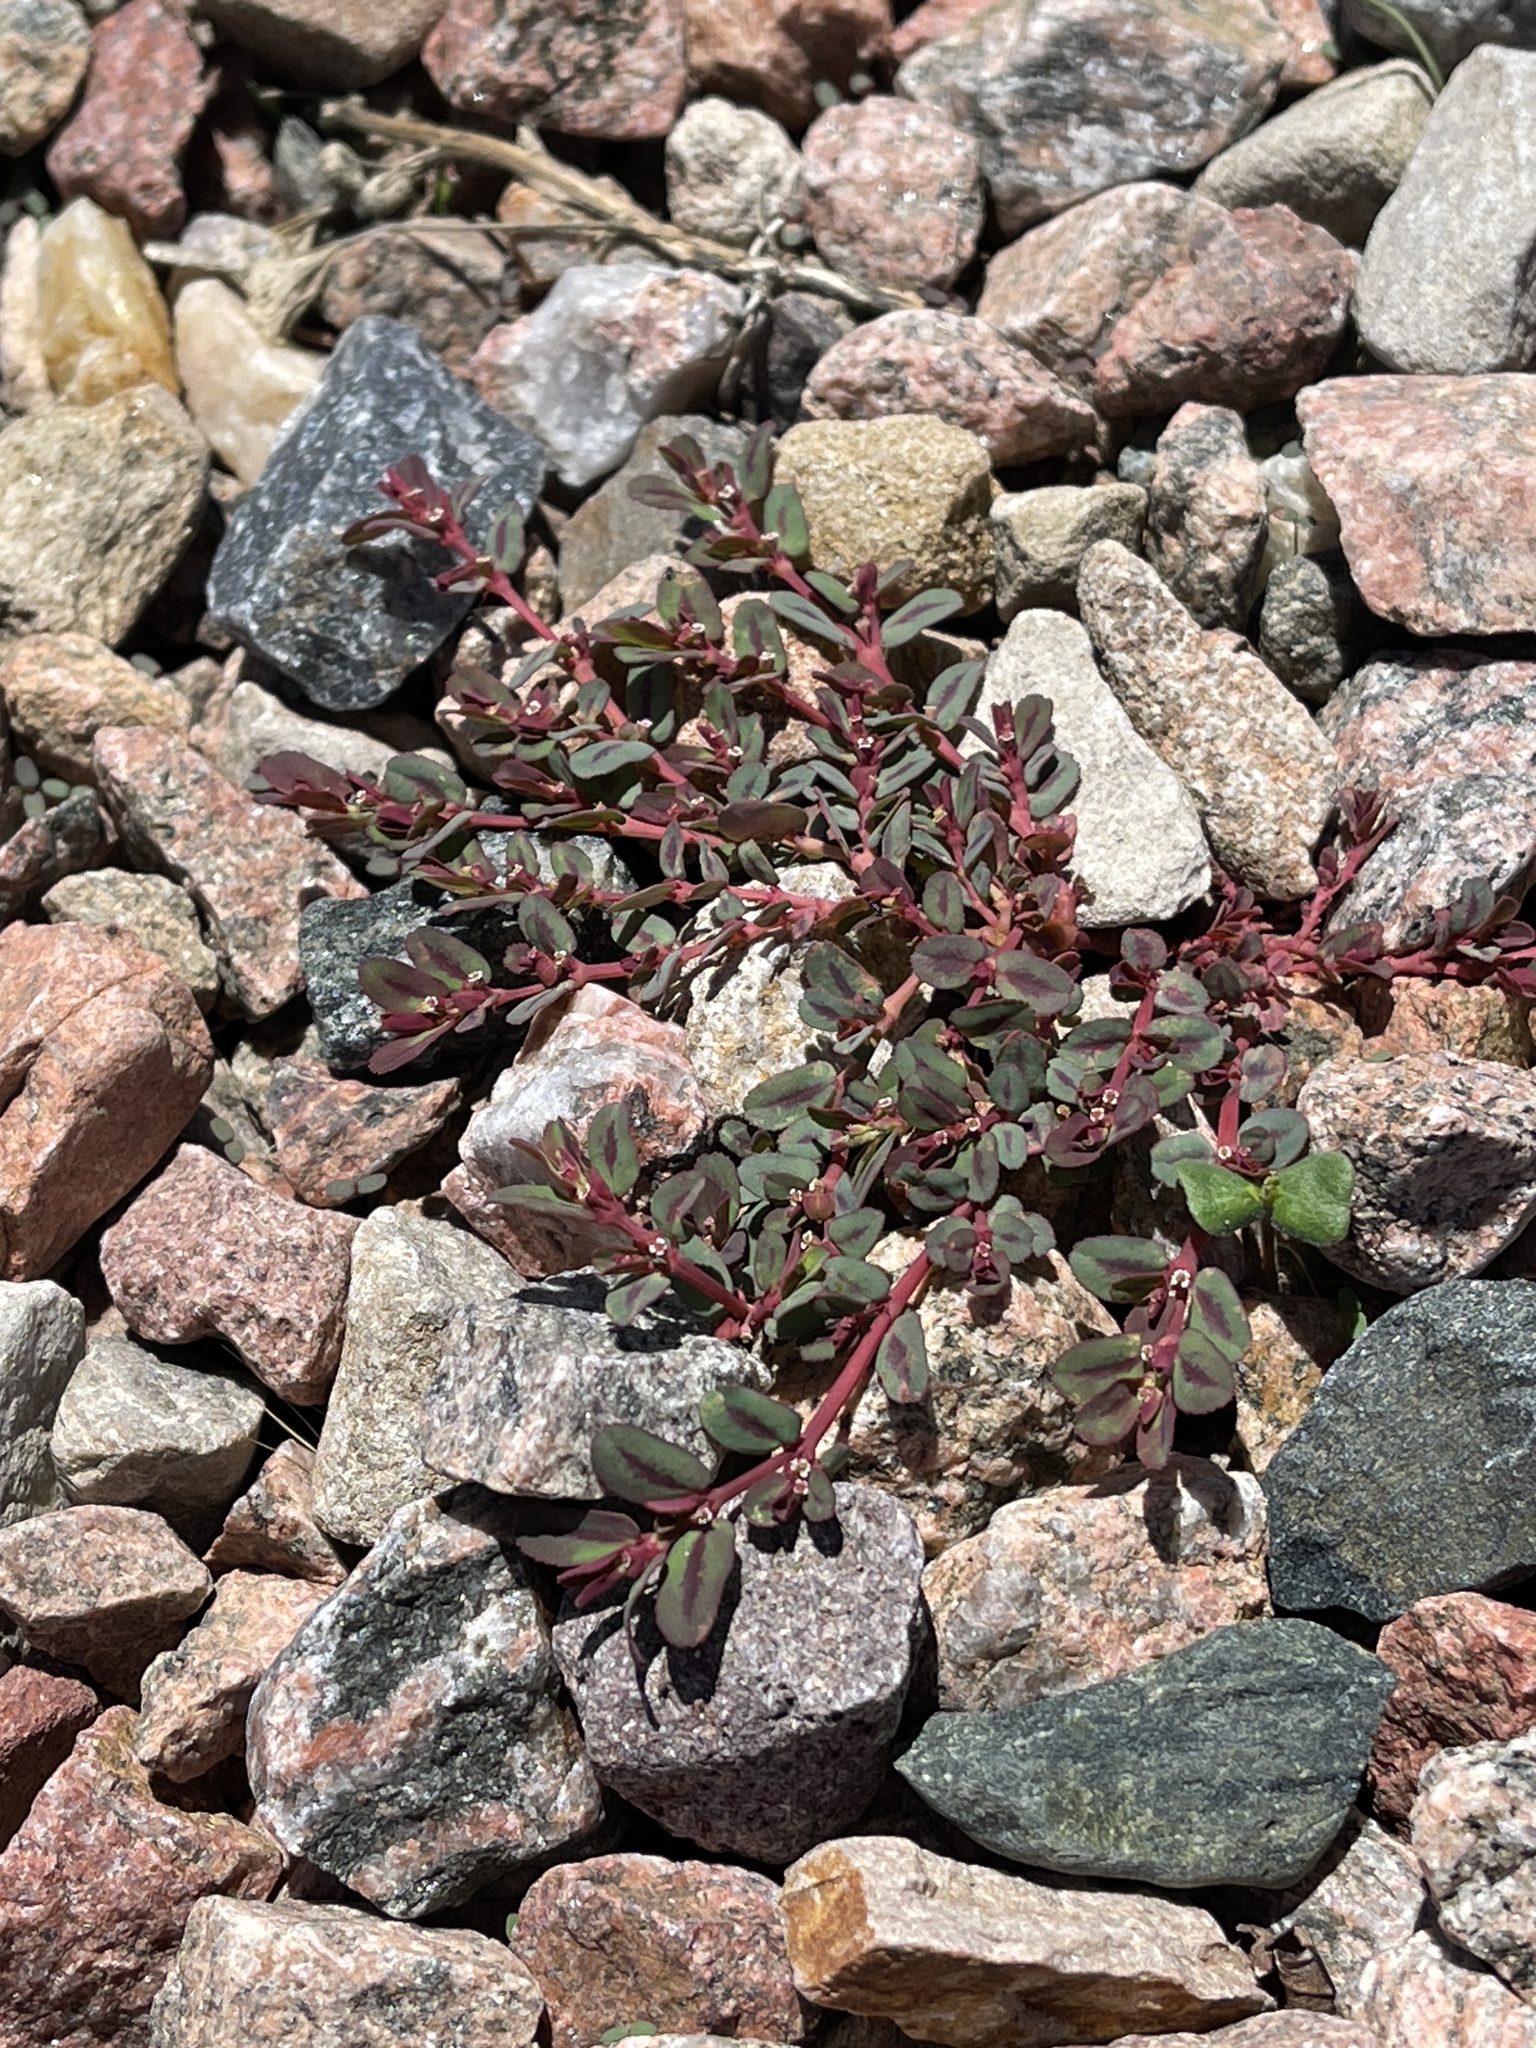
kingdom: Plantae
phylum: Tracheophyta
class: Magnoliopsida
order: Malpighiales
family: Euphorbiaceae
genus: Euphorbia
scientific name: Euphorbia serpillifolia
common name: Thyme-leaf spurge
